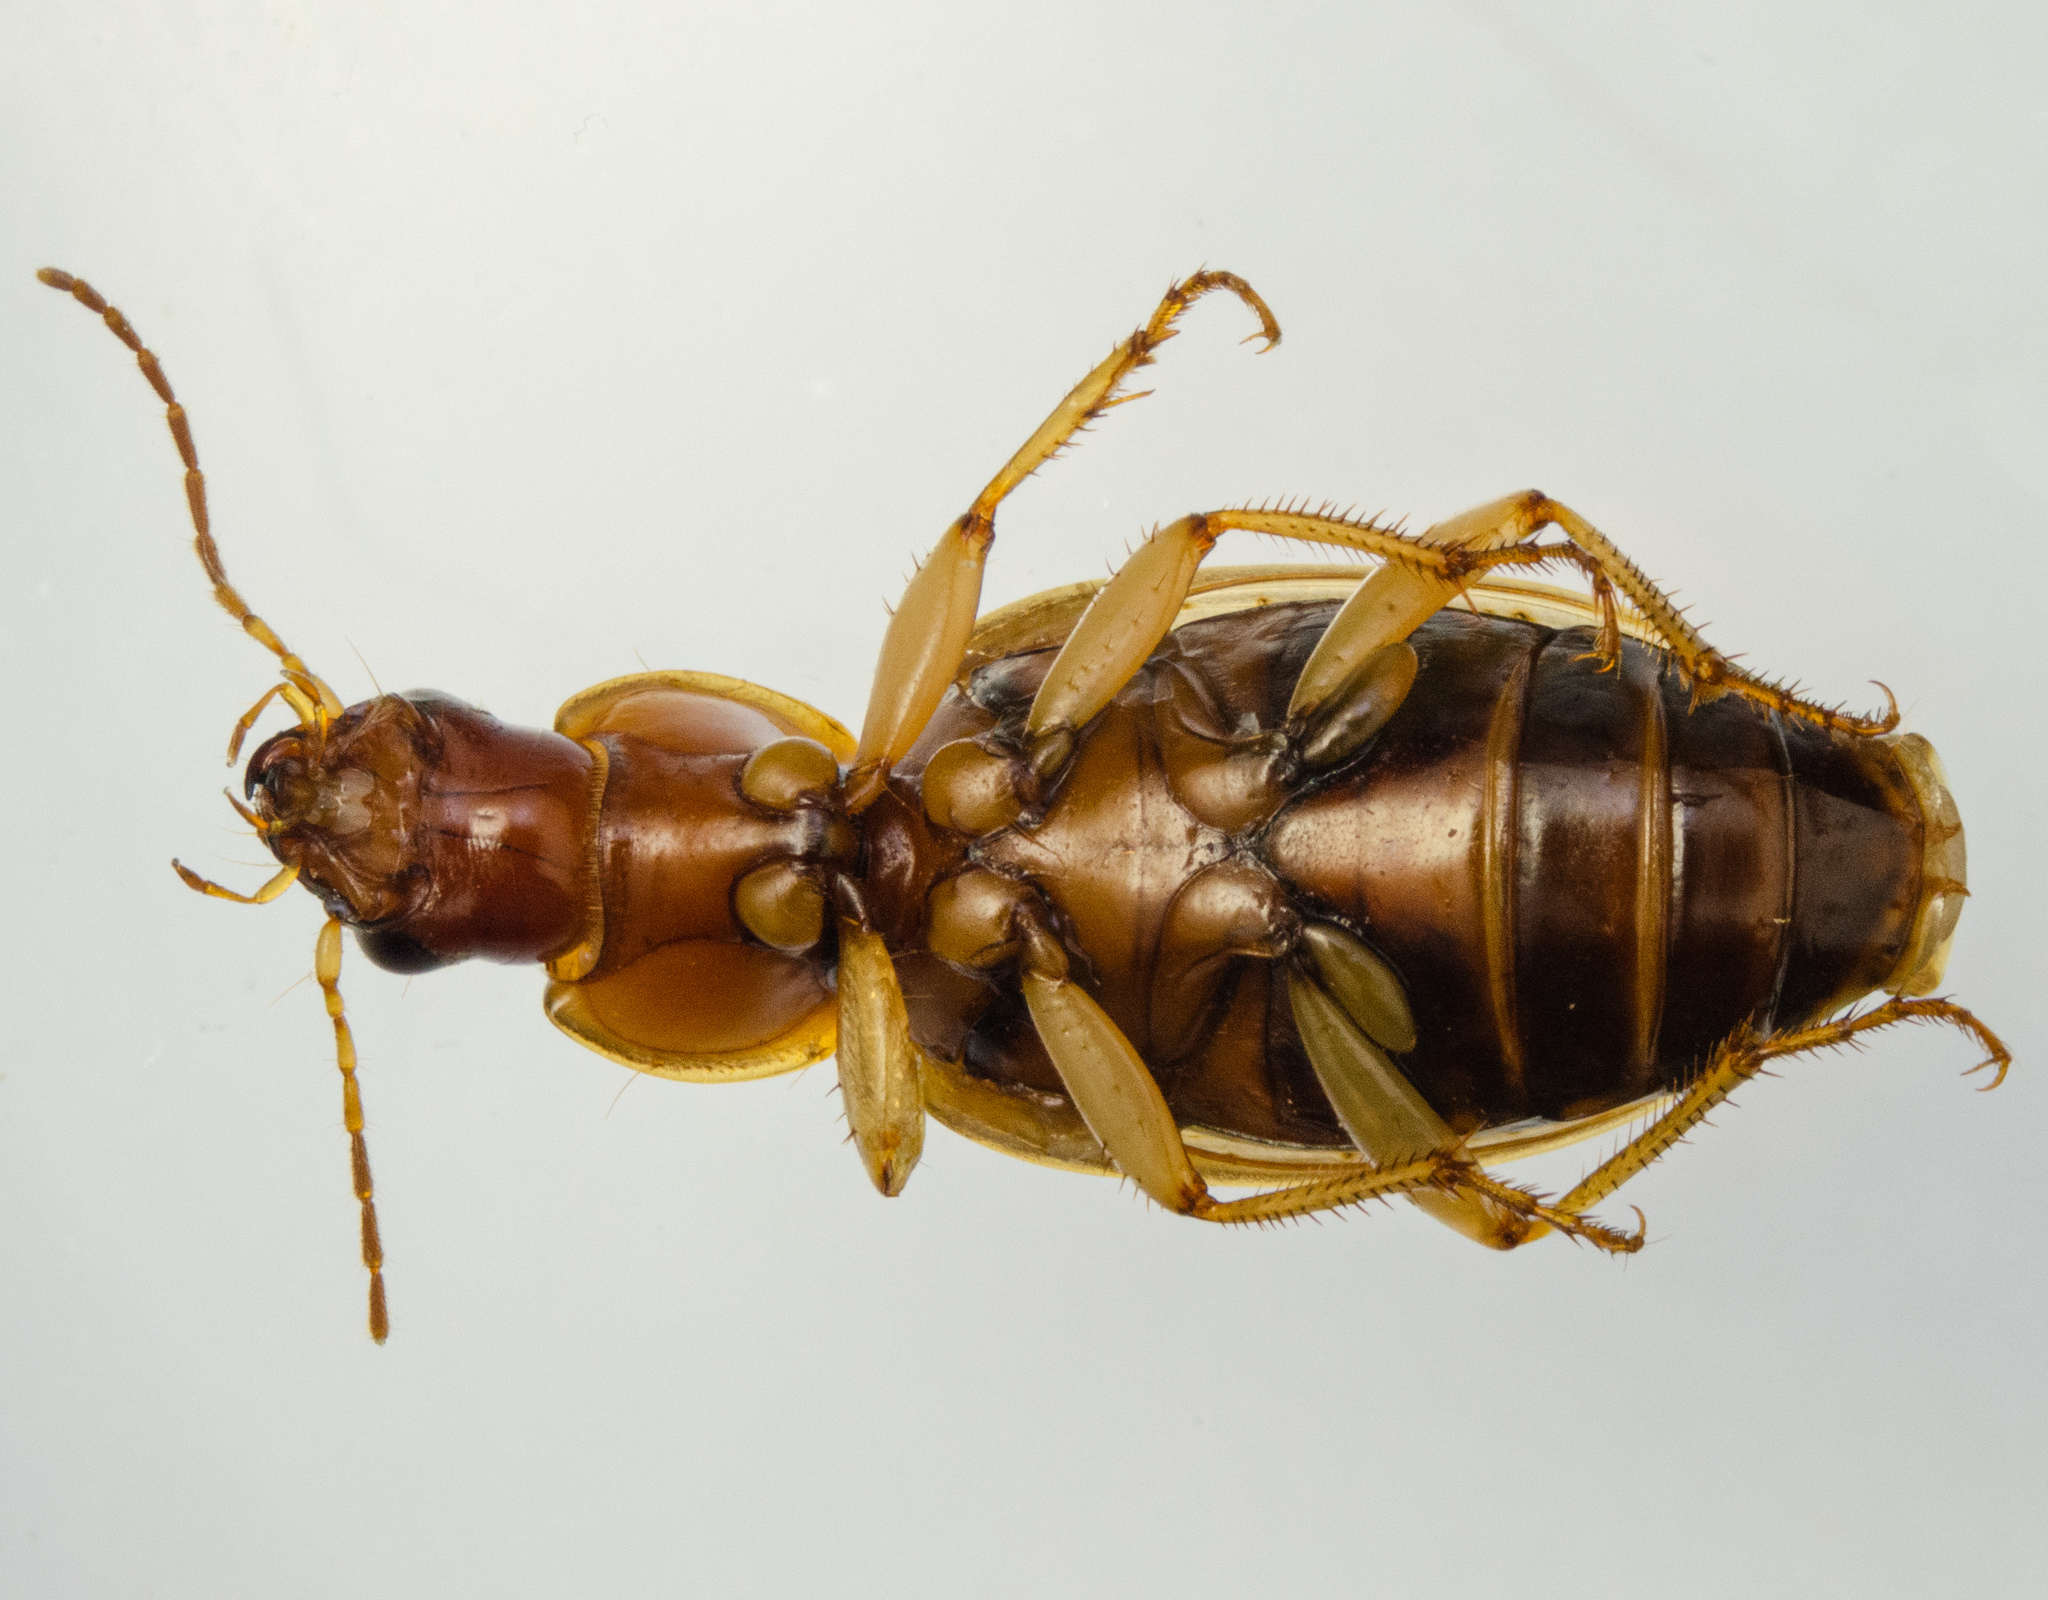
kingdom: Animalia
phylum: Arthropoda
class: Insecta
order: Coleoptera
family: Carabidae
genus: Tanystoma
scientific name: Tanystoma maculicolle
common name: Tule beetle
